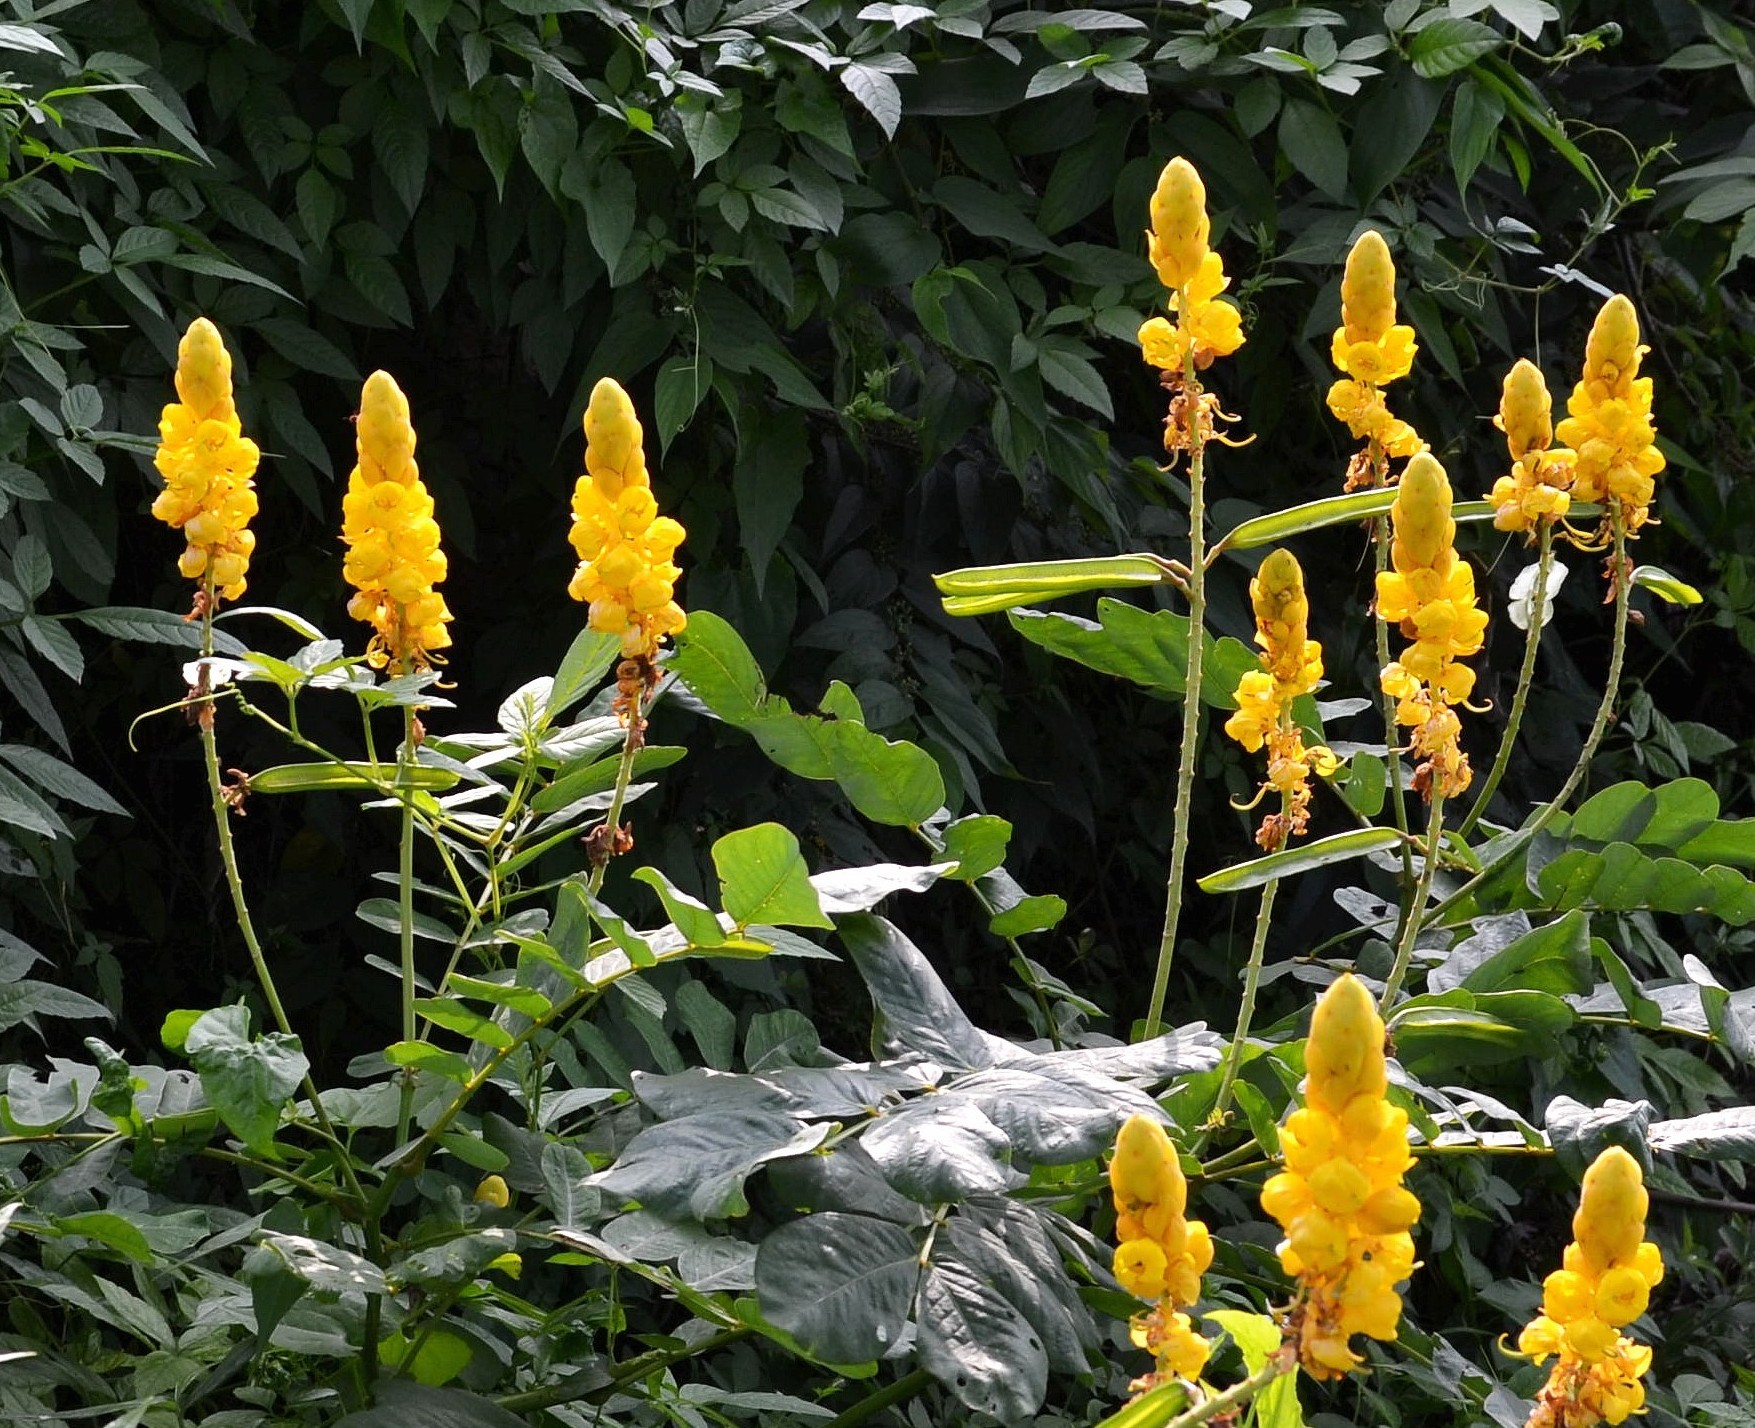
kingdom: Plantae
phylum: Tracheophyta
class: Magnoliopsida
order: Fabales
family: Fabaceae
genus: Senna
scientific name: Senna alata
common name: Emperor's candlesticks
